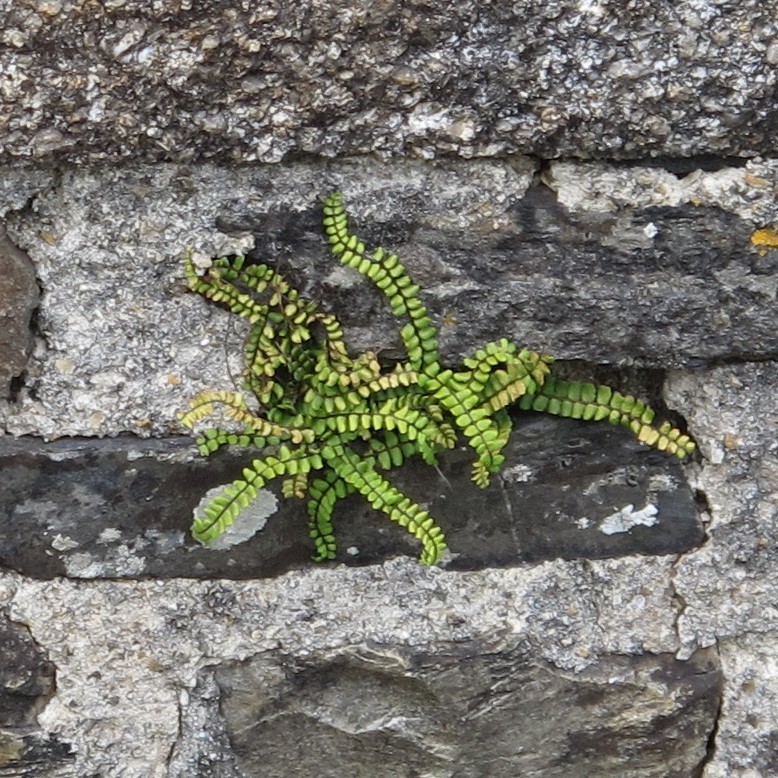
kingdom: Plantae
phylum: Tracheophyta
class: Polypodiopsida
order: Polypodiales
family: Aspleniaceae
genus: Asplenium
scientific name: Asplenium trichomanes
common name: Maidenhair spleenwort
